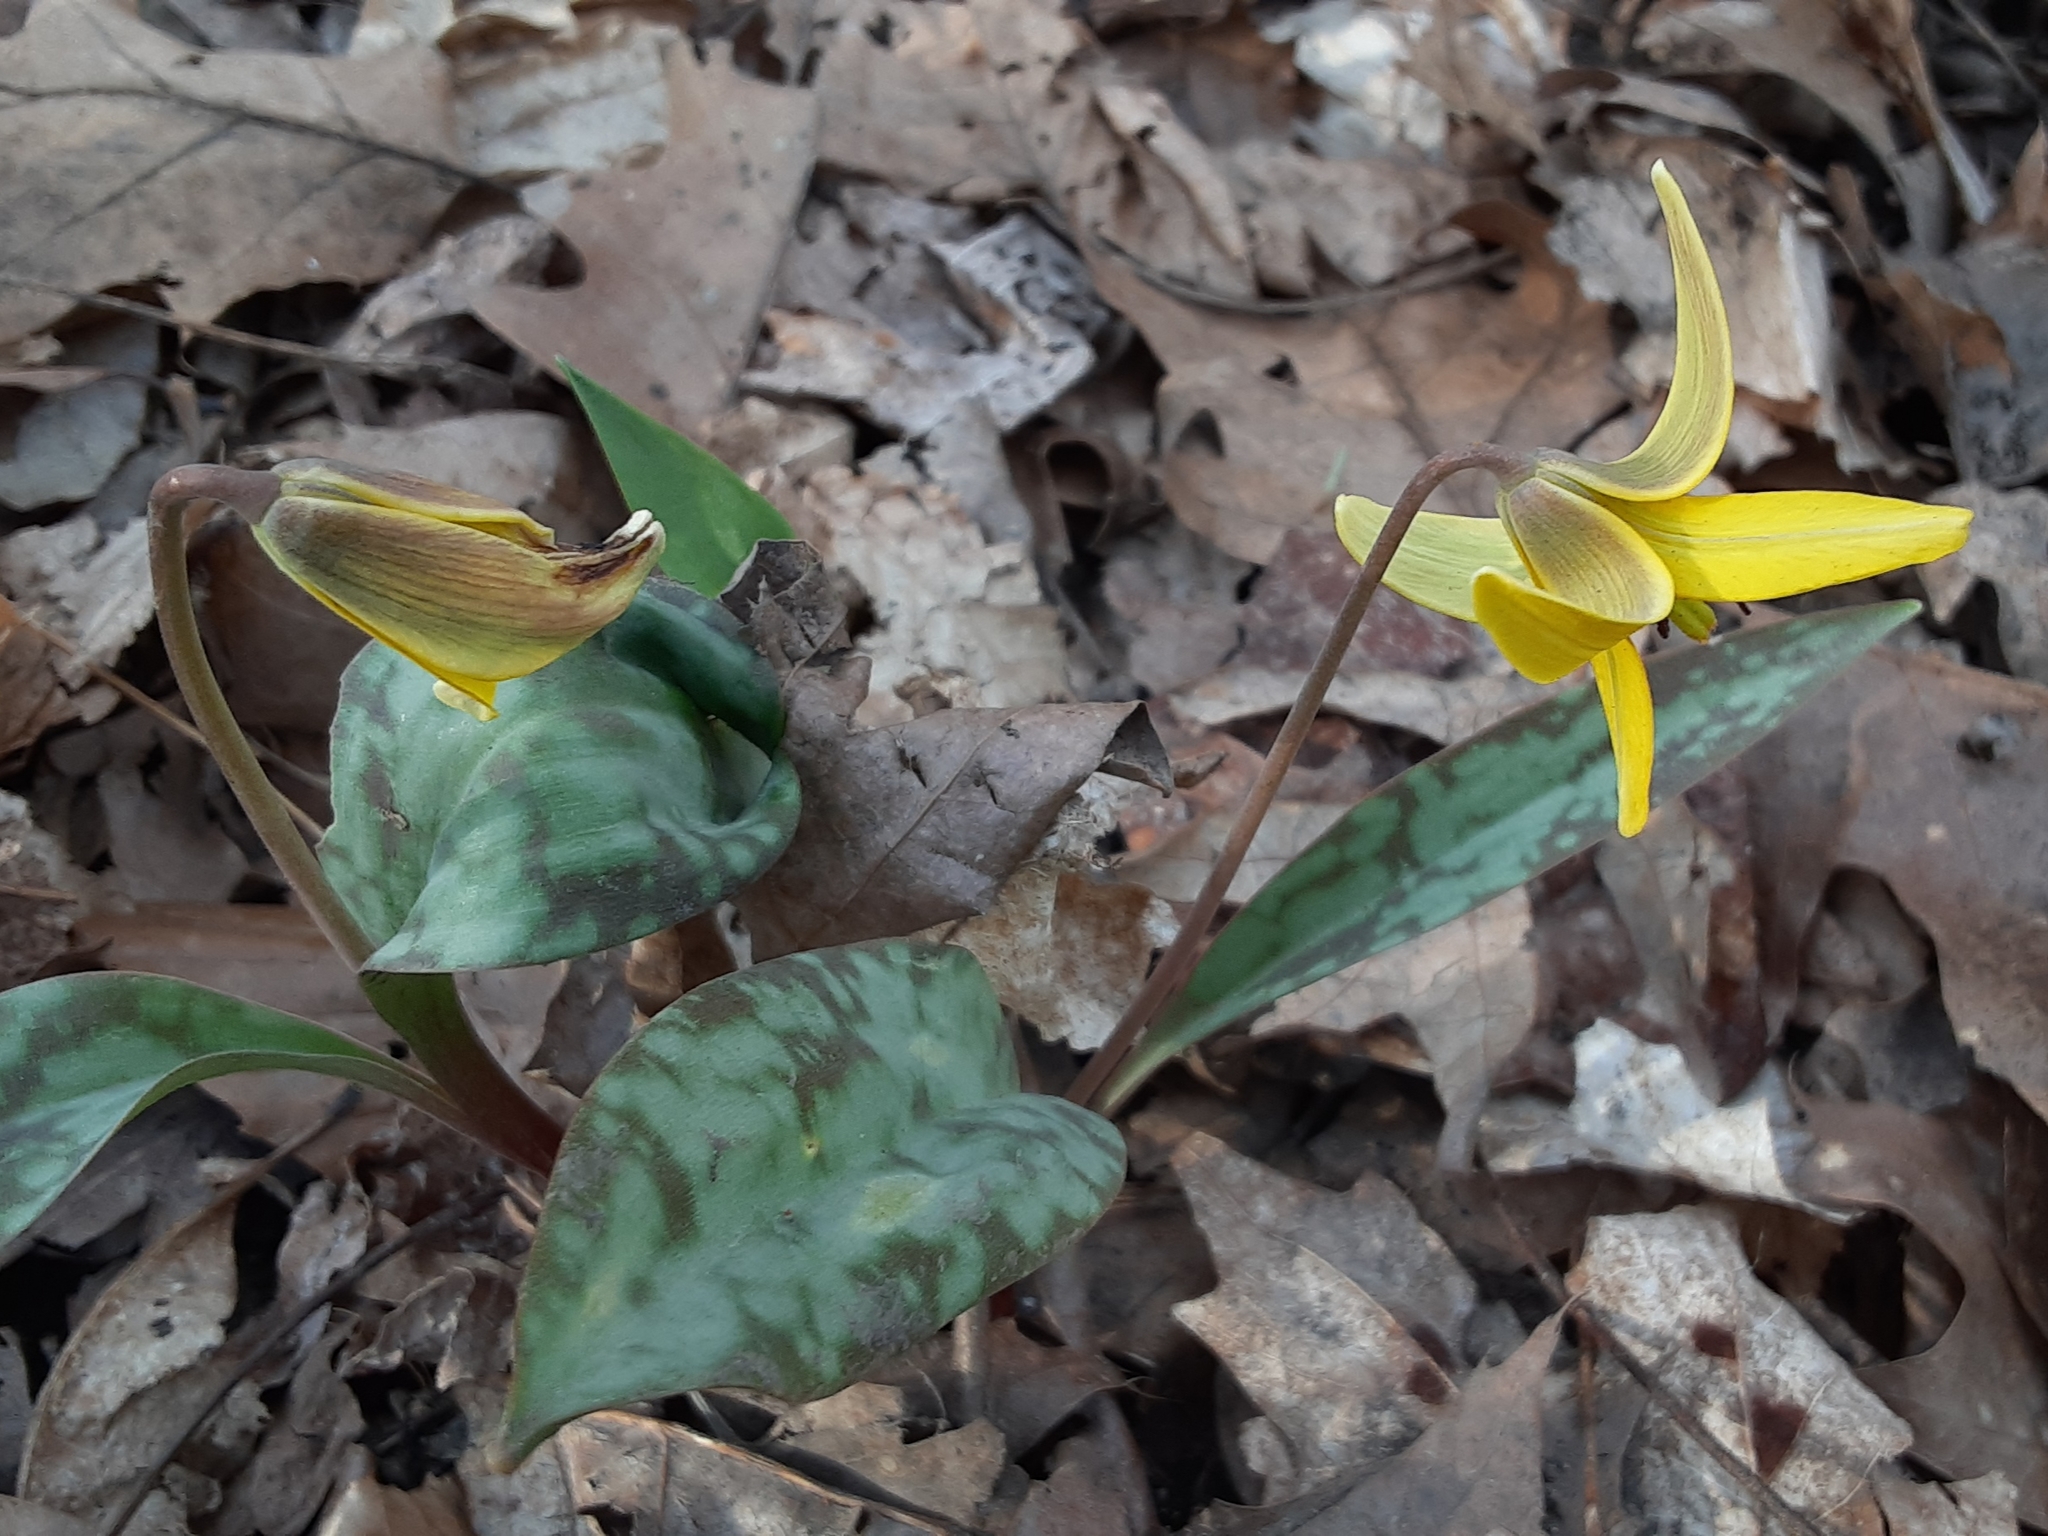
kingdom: Plantae
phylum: Tracheophyta
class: Liliopsida
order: Liliales
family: Liliaceae
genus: Erythronium
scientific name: Erythronium americanum
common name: Yellow adder's-tongue
